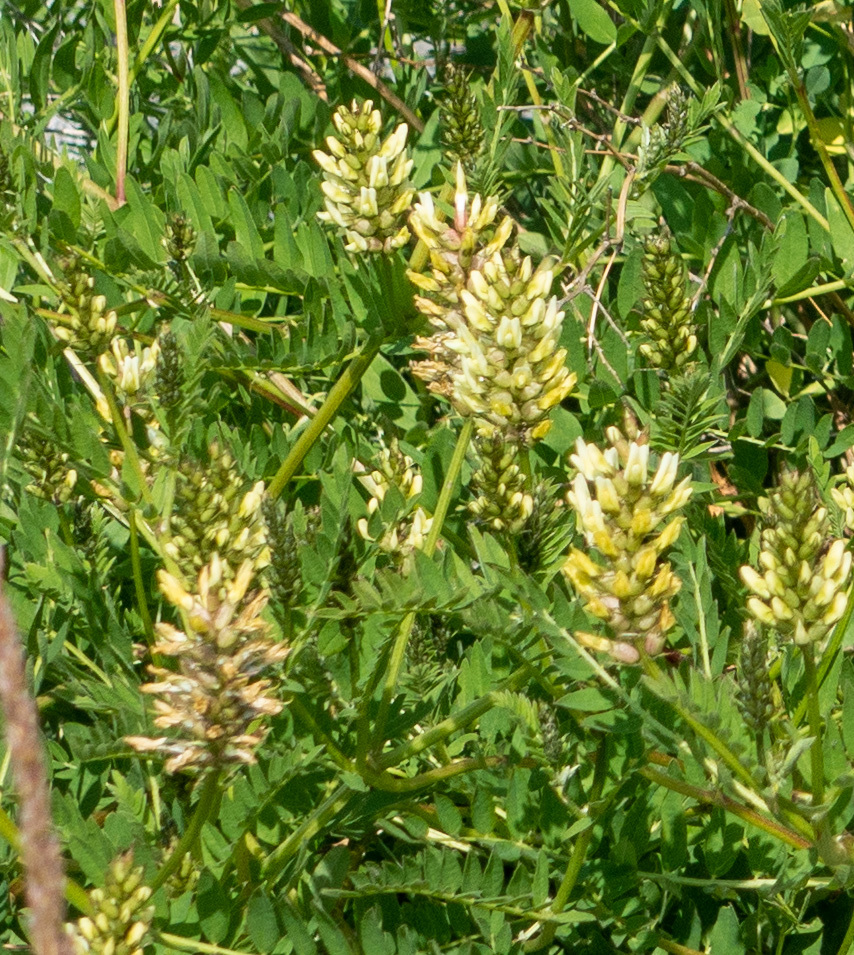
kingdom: Plantae
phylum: Tracheophyta
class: Magnoliopsida
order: Fabales
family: Fabaceae
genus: Glycyrrhiza
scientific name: Glycyrrhiza lepidota
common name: American liquorice
